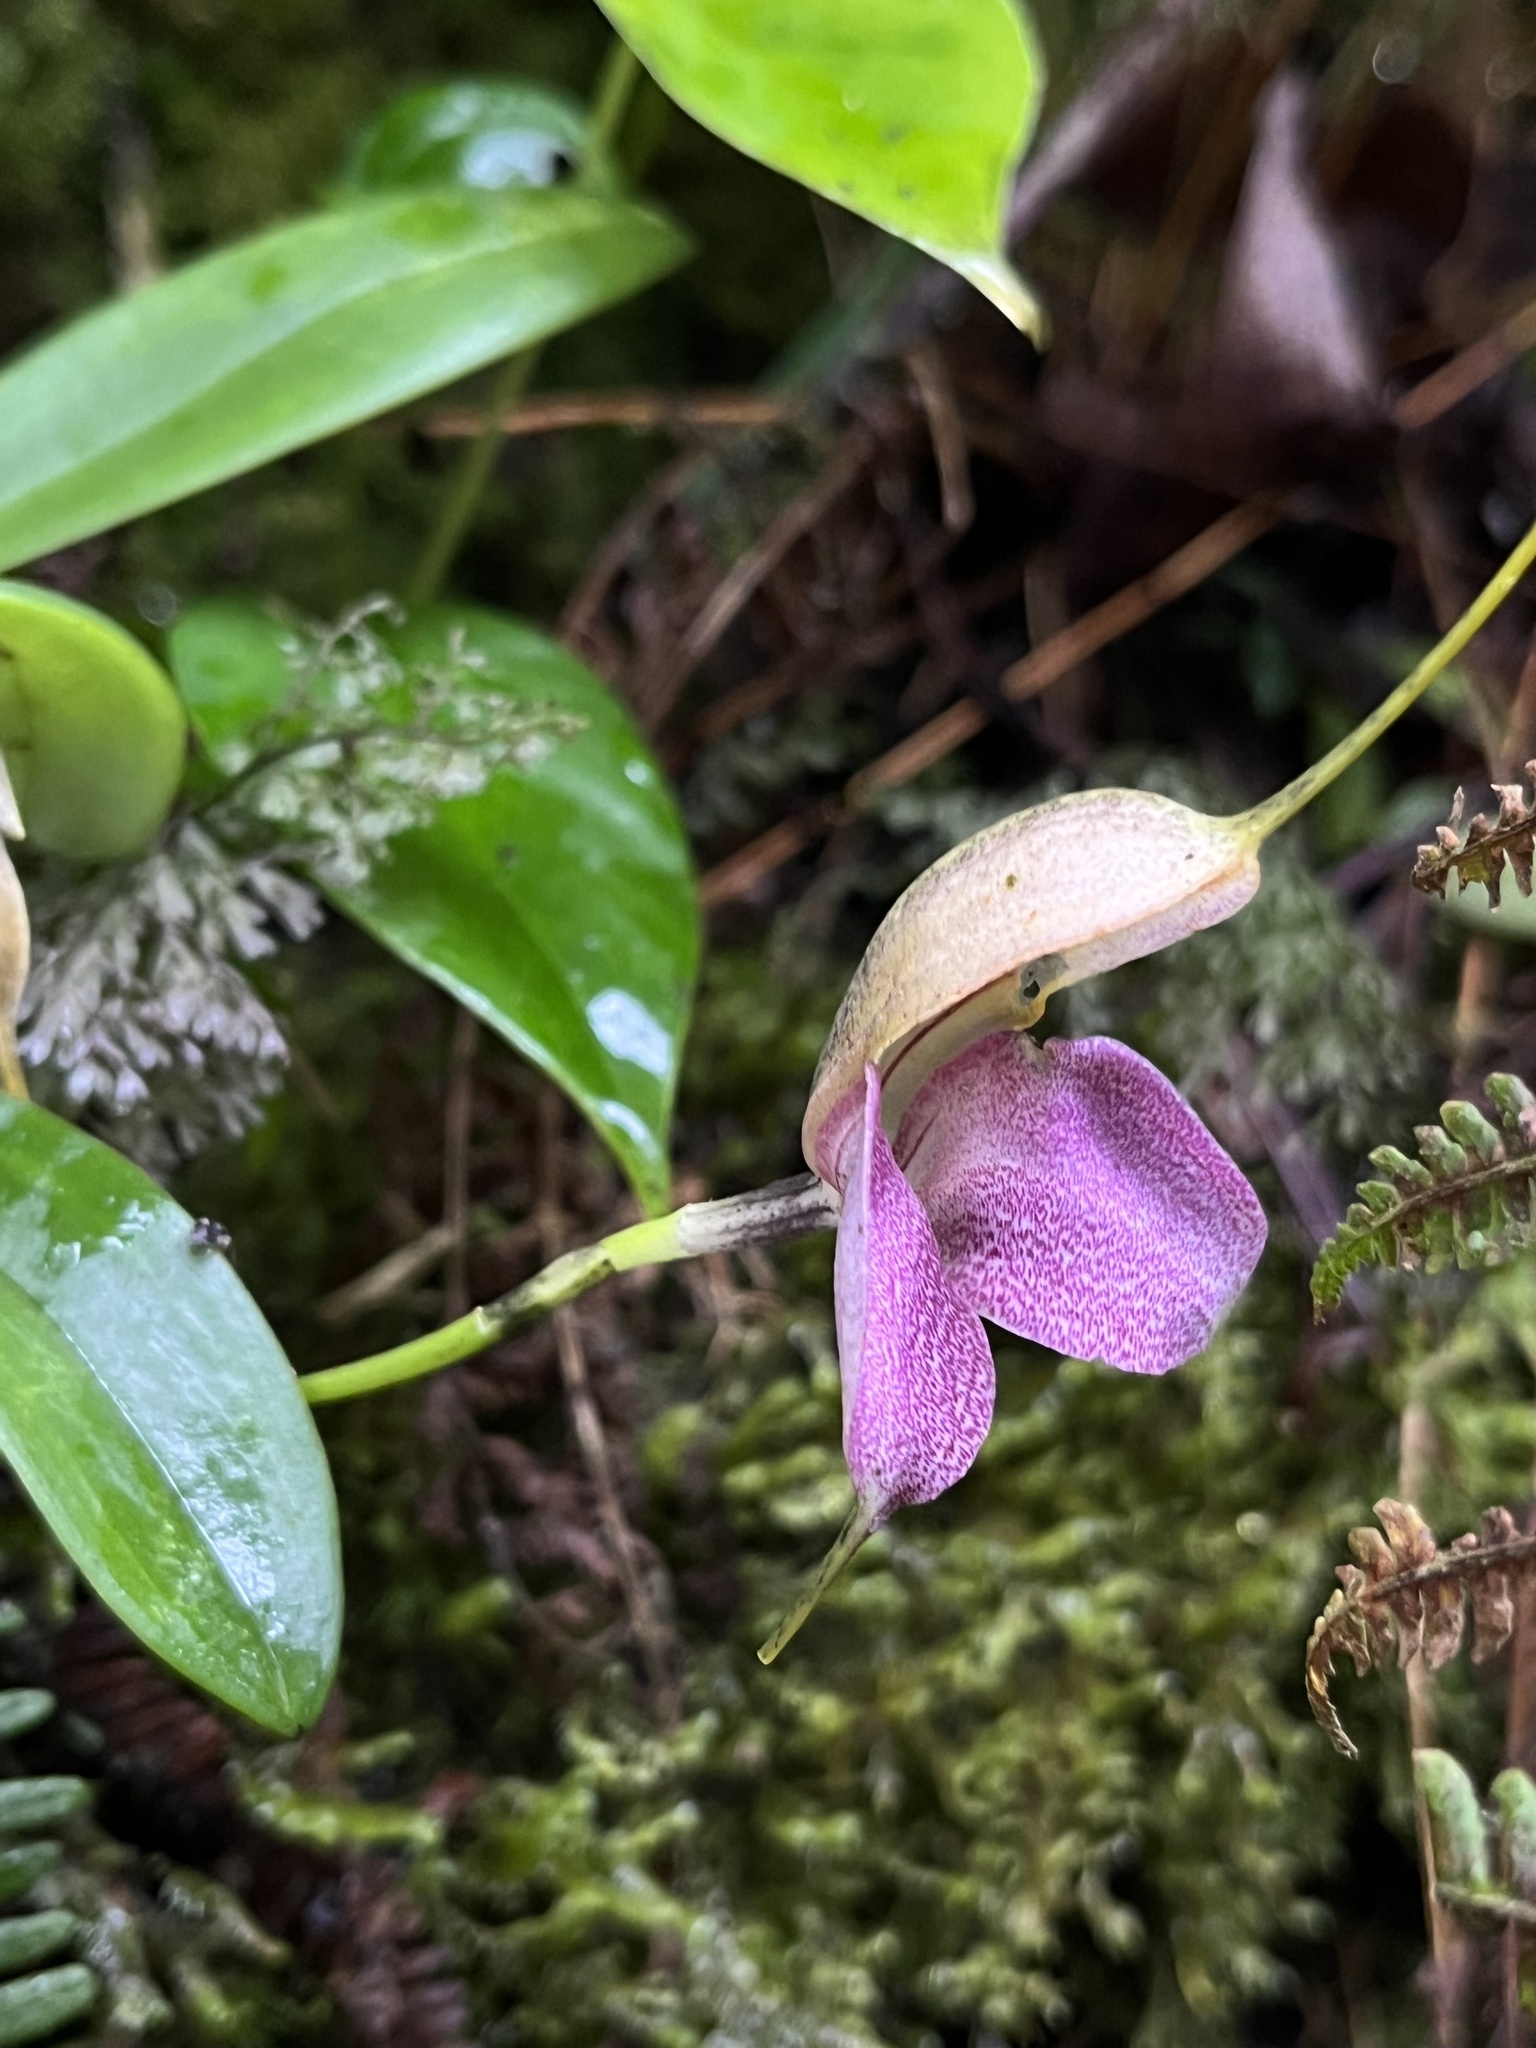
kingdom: Plantae
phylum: Tracheophyta
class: Liliopsida
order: Asparagales
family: Orchidaceae
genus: Masdevallia
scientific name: Masdevallia caudata
